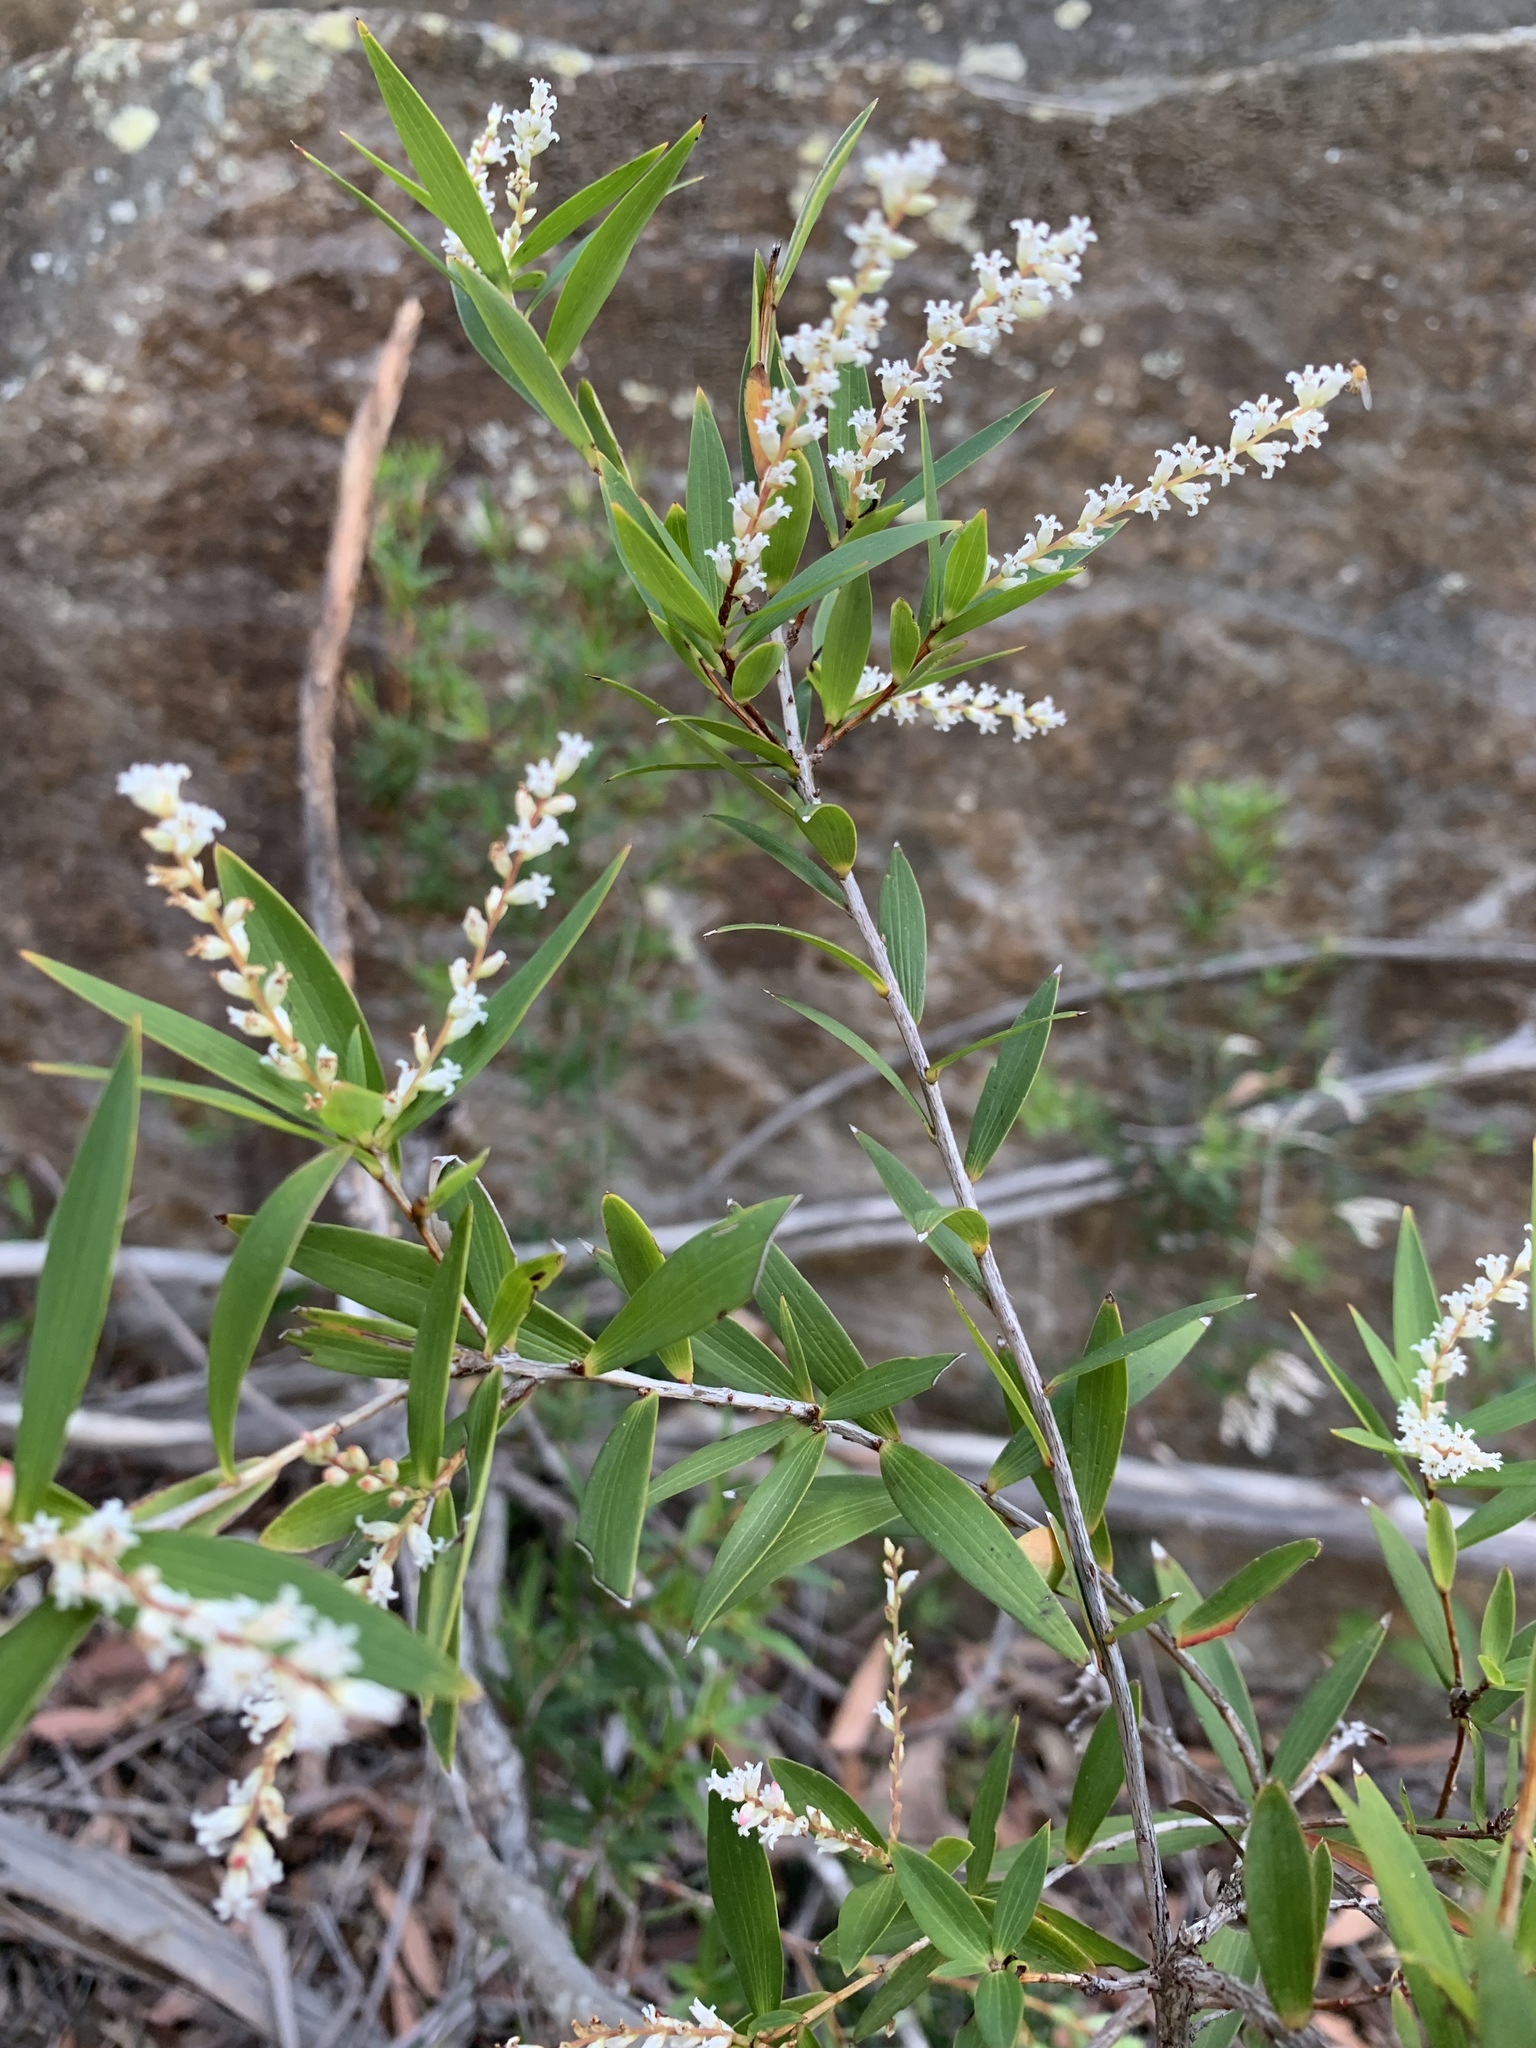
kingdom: Plantae
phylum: Tracheophyta
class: Magnoliopsida
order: Ericales
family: Ericaceae
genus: Leucopogon
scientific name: Leucopogon lanceolatus
